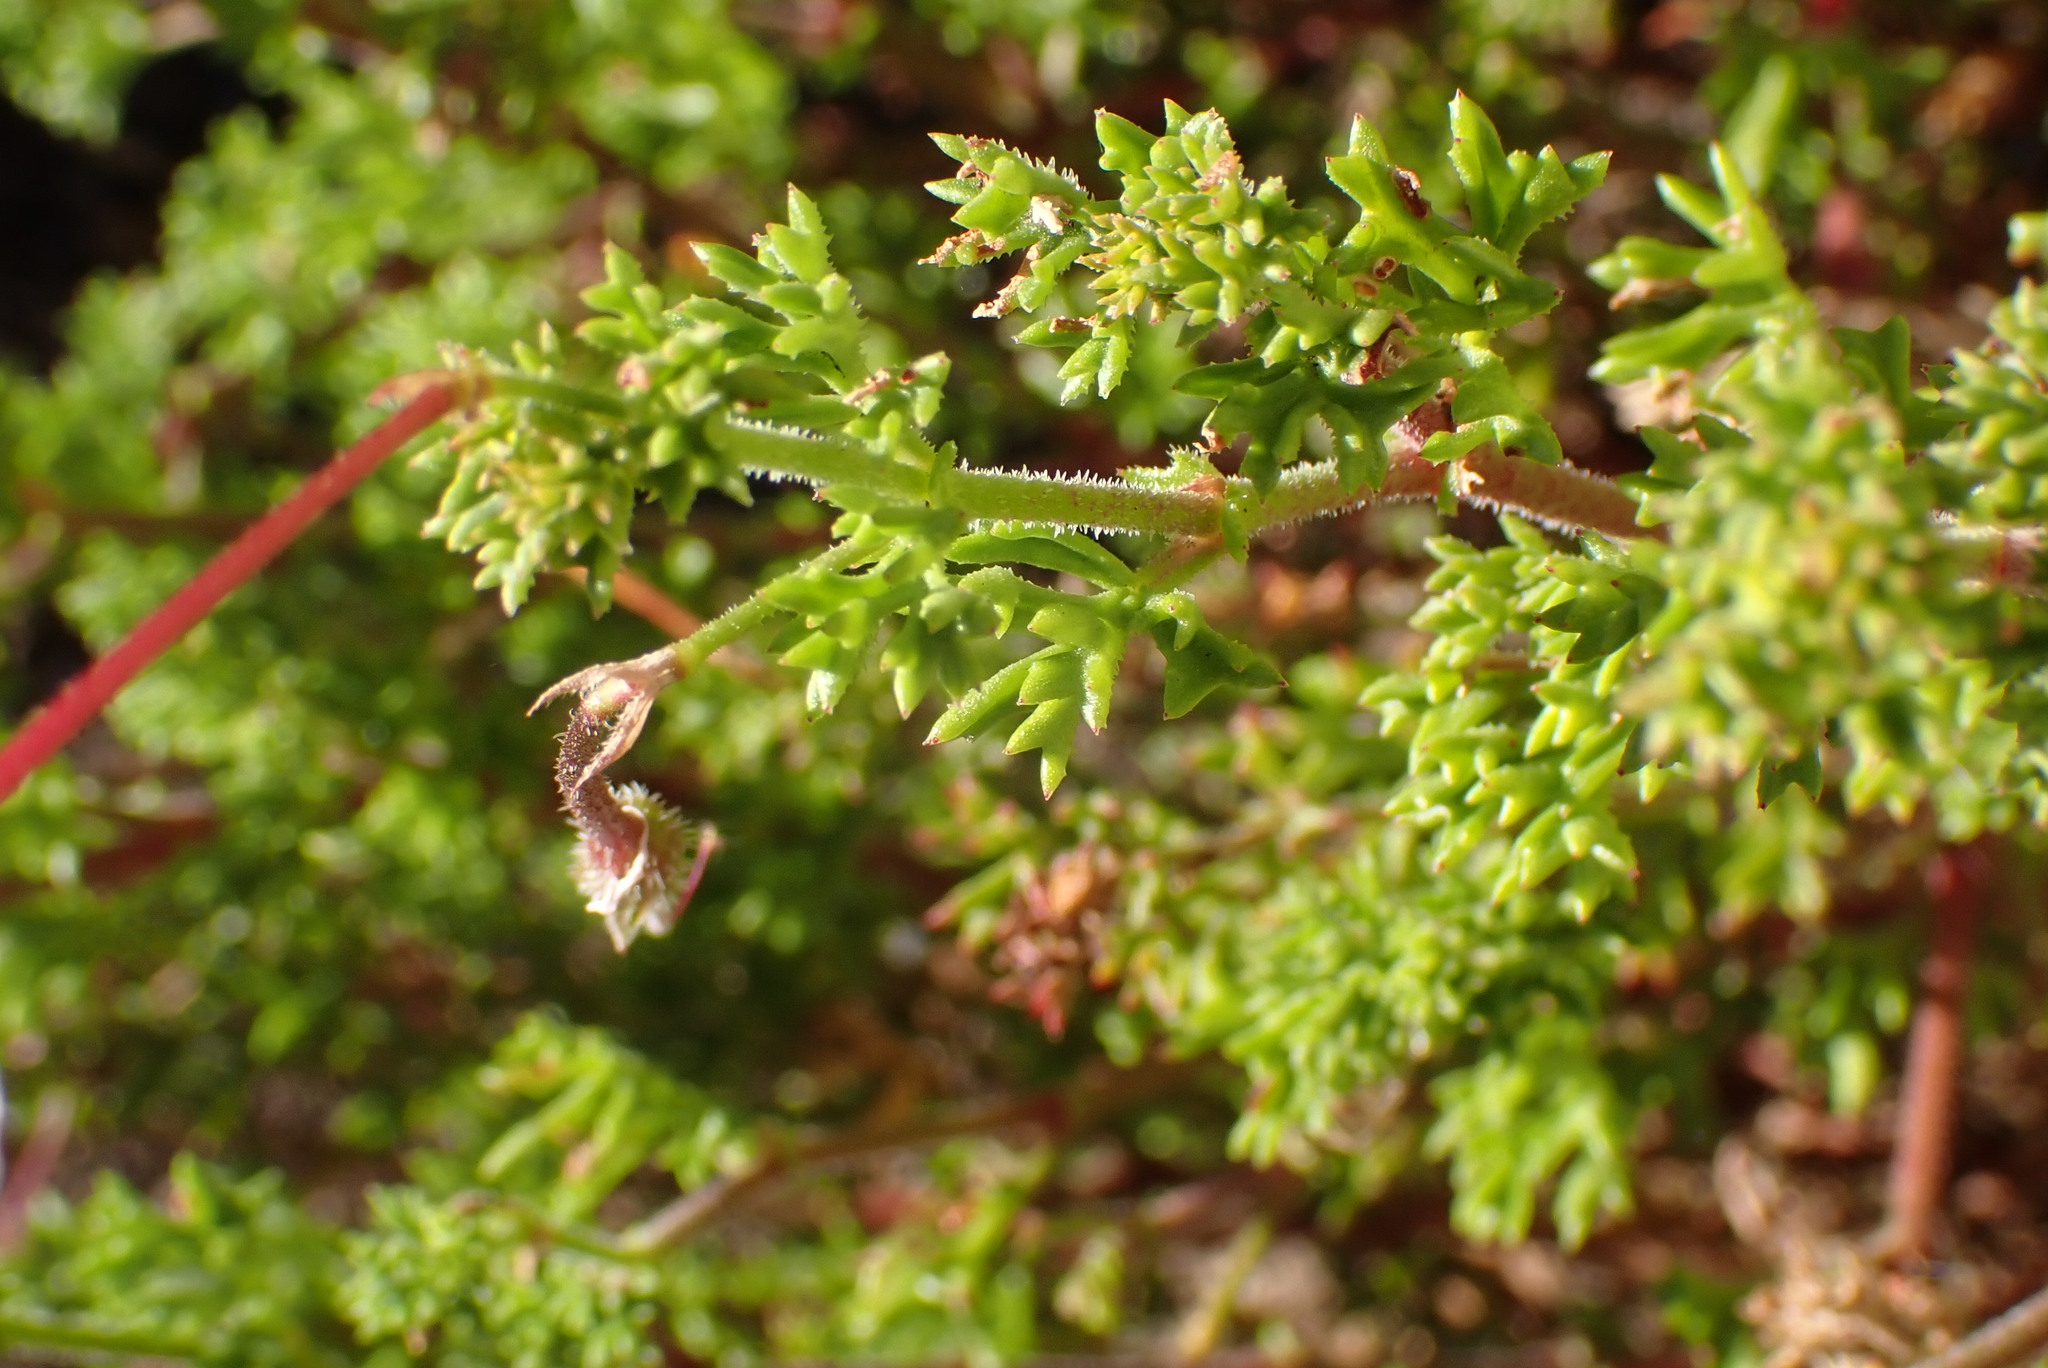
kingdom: Plantae
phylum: Tracheophyta
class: Magnoliopsida
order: Geraniales
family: Geraniaceae
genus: Pelargonium
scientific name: Pelargonium fruticosum
